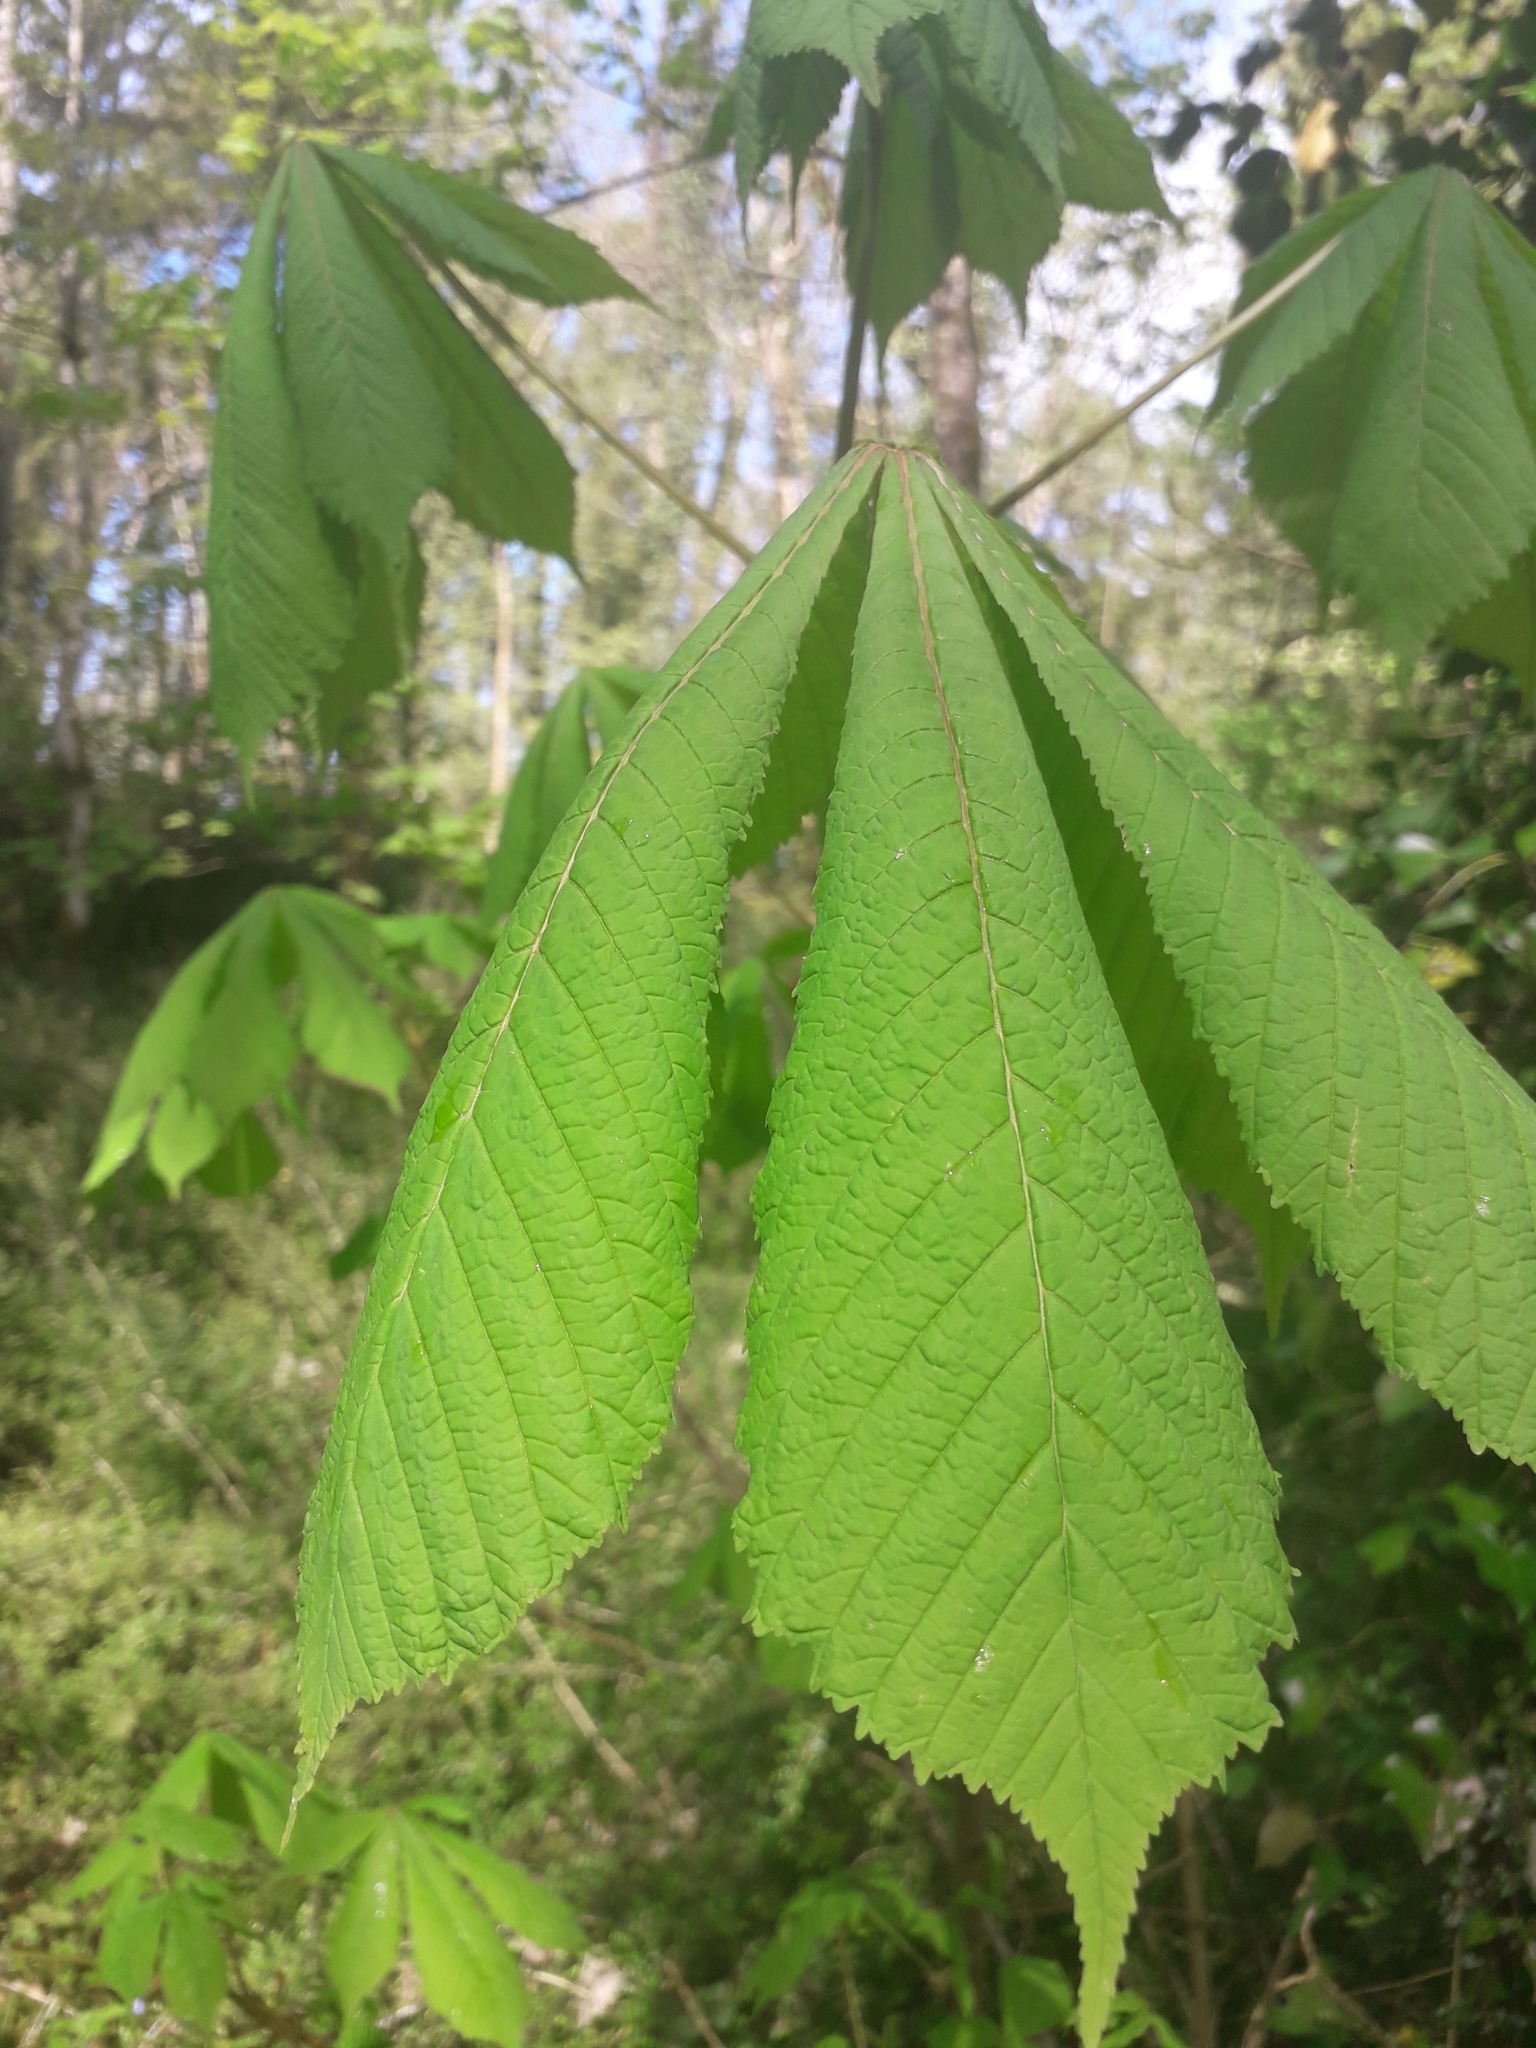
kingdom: Plantae
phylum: Tracheophyta
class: Magnoliopsida
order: Sapindales
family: Sapindaceae
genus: Aesculus
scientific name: Aesculus hippocastanum
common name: Horse-chestnut
